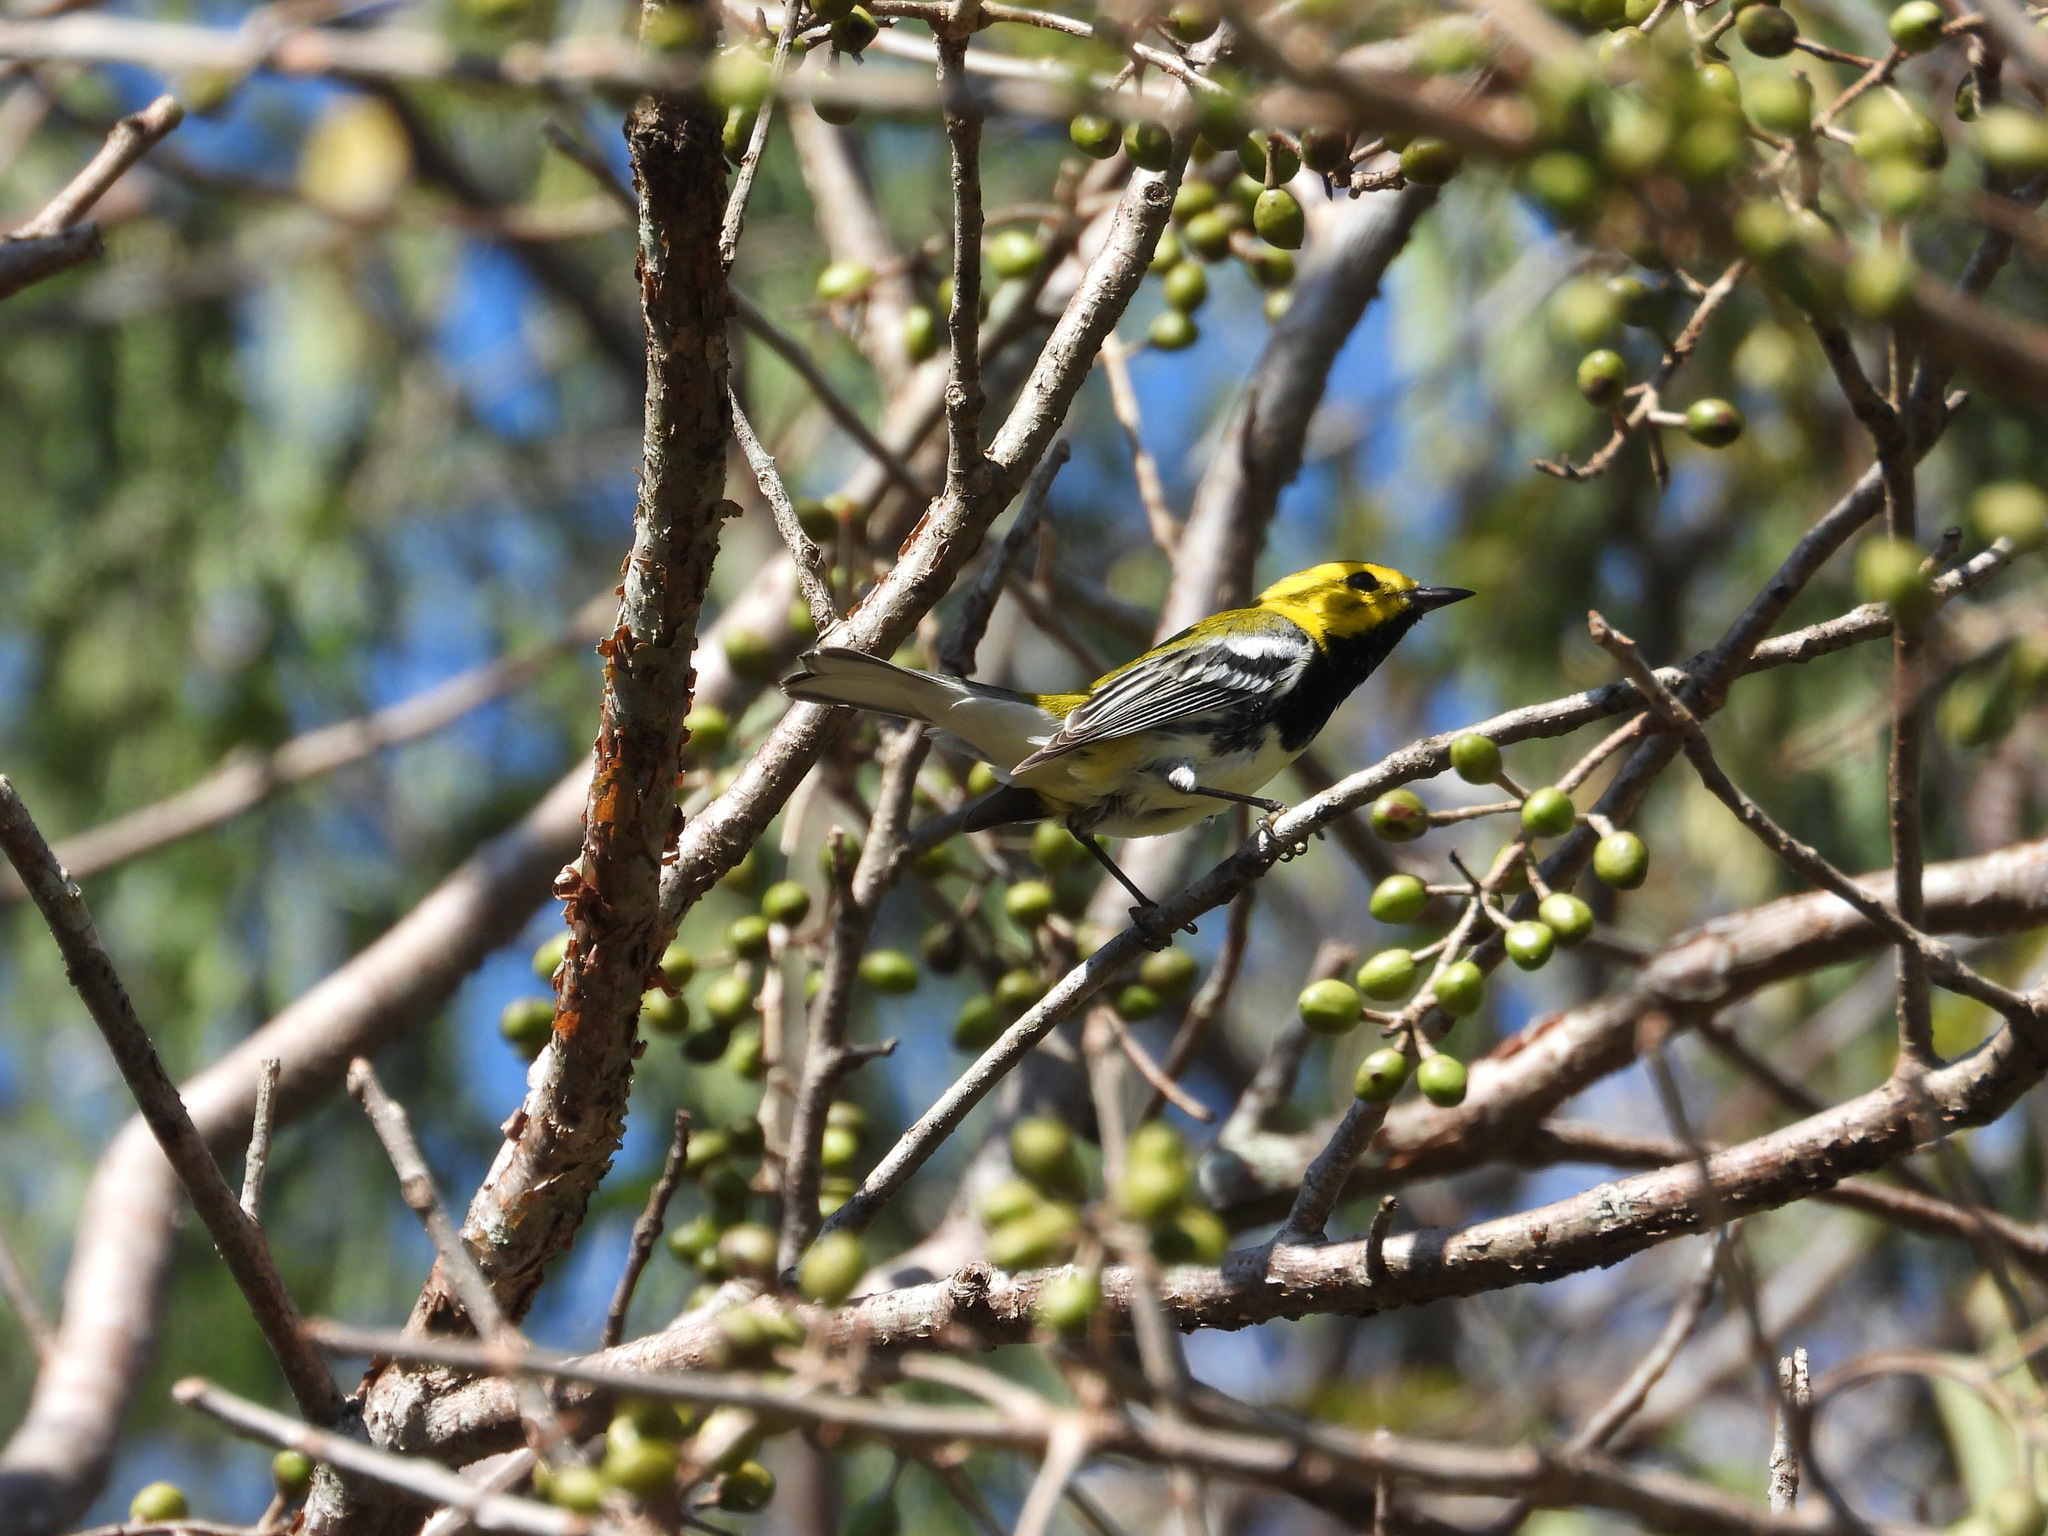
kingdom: Animalia
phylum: Chordata
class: Aves
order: Passeriformes
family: Parulidae
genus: Setophaga
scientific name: Setophaga virens
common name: Black-throated green warbler
